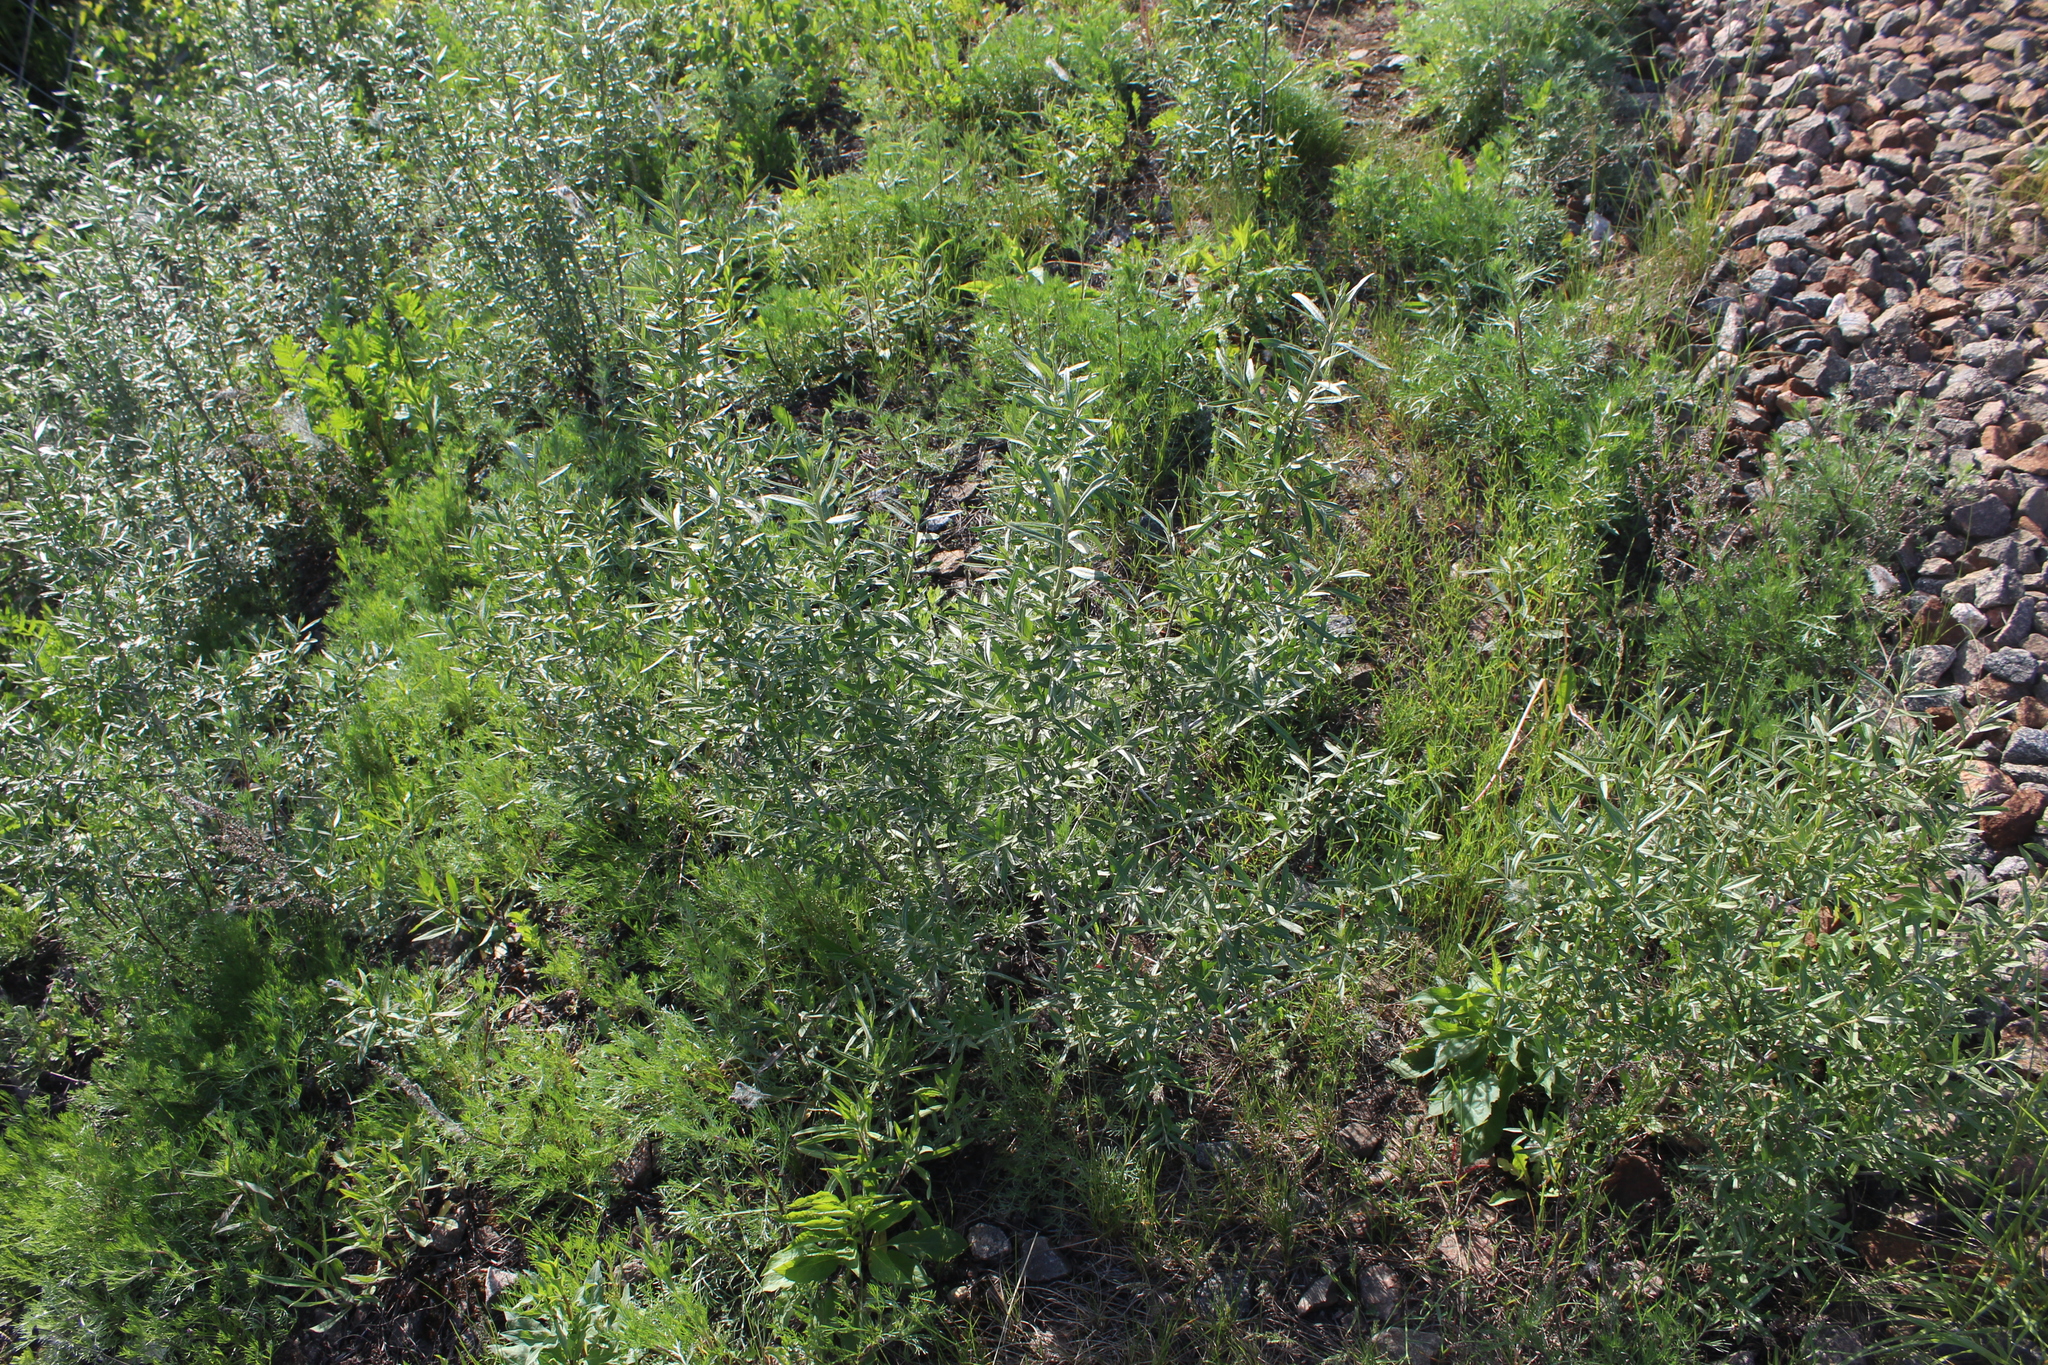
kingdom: Plantae
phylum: Tracheophyta
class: Magnoliopsida
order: Rosales
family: Elaeagnaceae
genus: Hippophae
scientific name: Hippophae rhamnoides
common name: Sea-buckthorn
